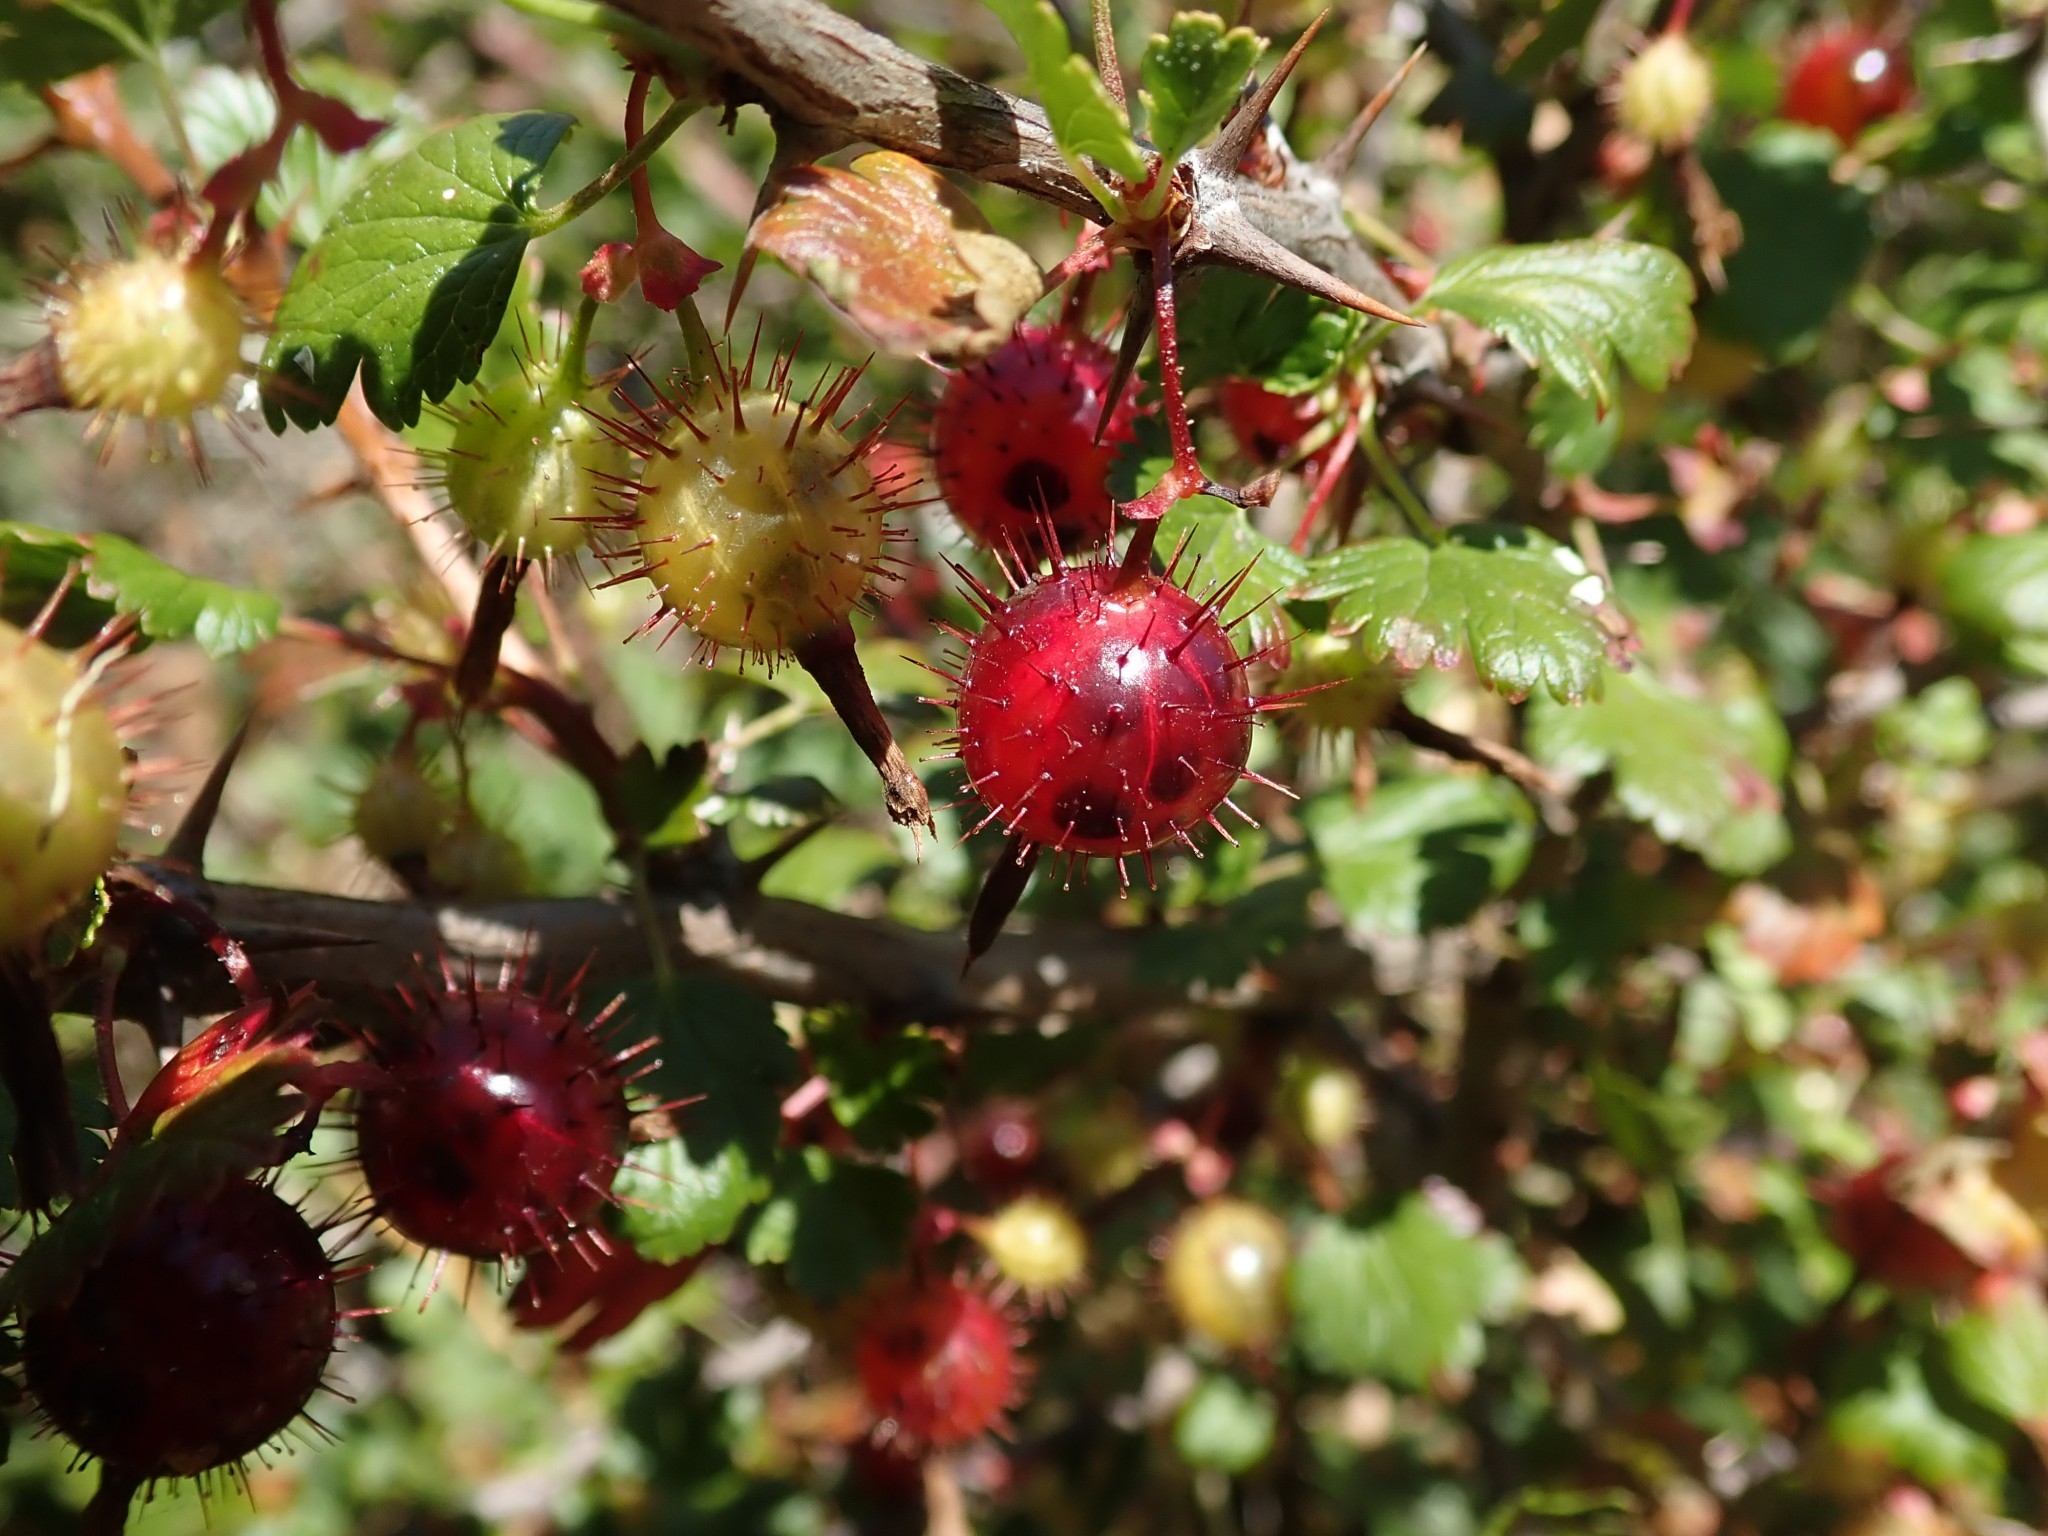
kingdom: Plantae
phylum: Tracheophyta
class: Magnoliopsida
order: Saxifragales
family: Grossulariaceae
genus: Ribes
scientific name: Ribes californicum
